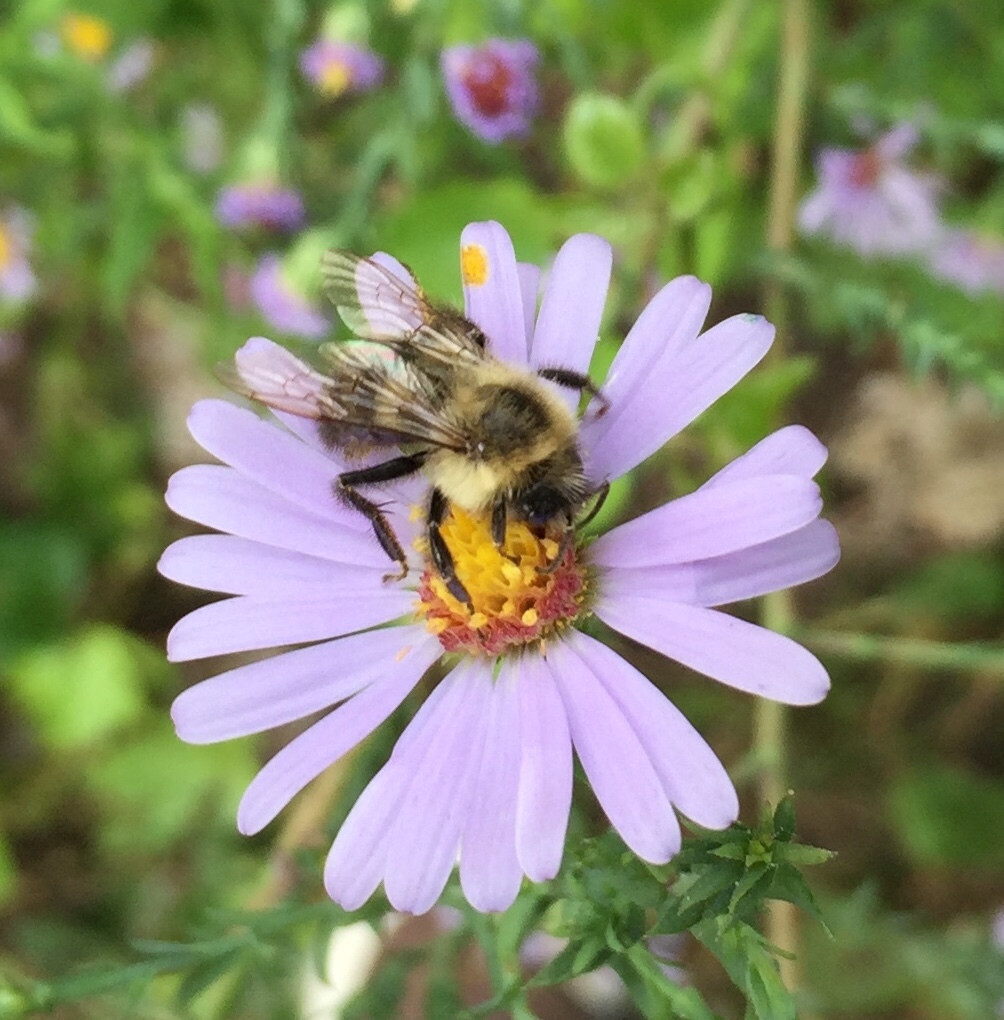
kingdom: Animalia
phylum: Arthropoda
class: Insecta
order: Hymenoptera
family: Apidae
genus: Bombus
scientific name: Bombus impatiens
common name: Common eastern bumble bee
